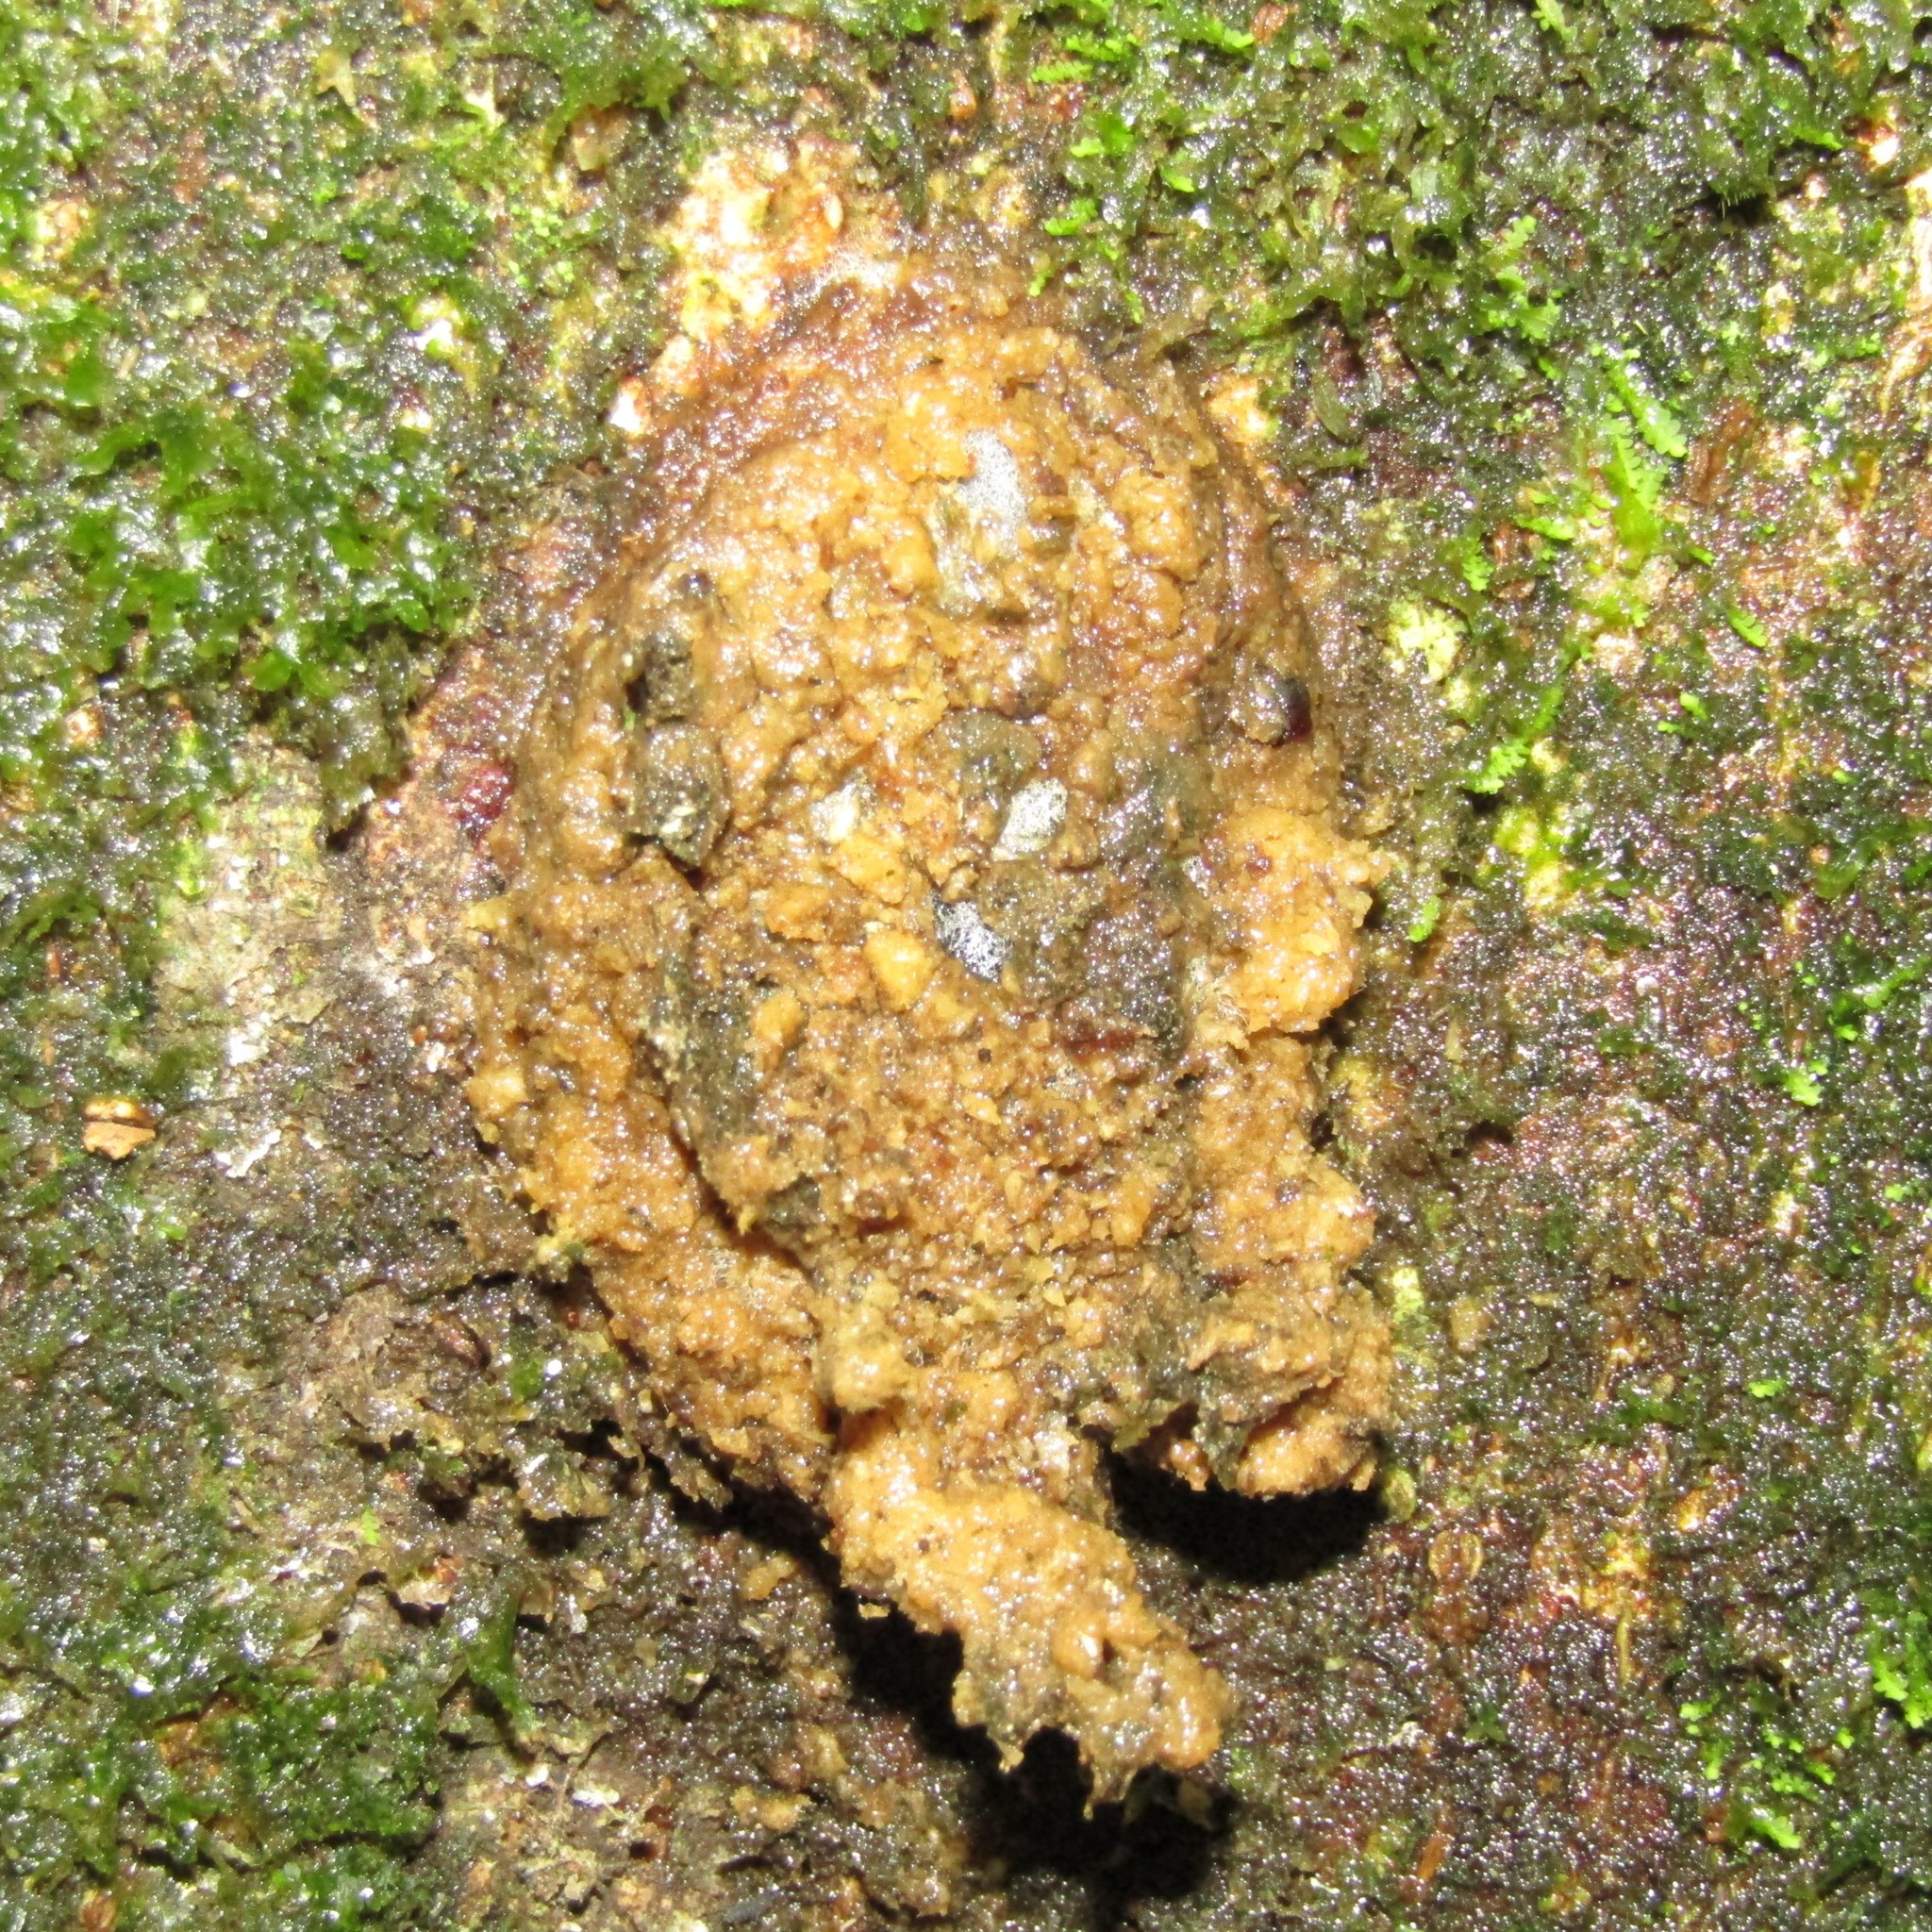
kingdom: Animalia
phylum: Arthropoda
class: Insecta
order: Lepidoptera
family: Hepialidae
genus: Aenetus
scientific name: Aenetus virescens
